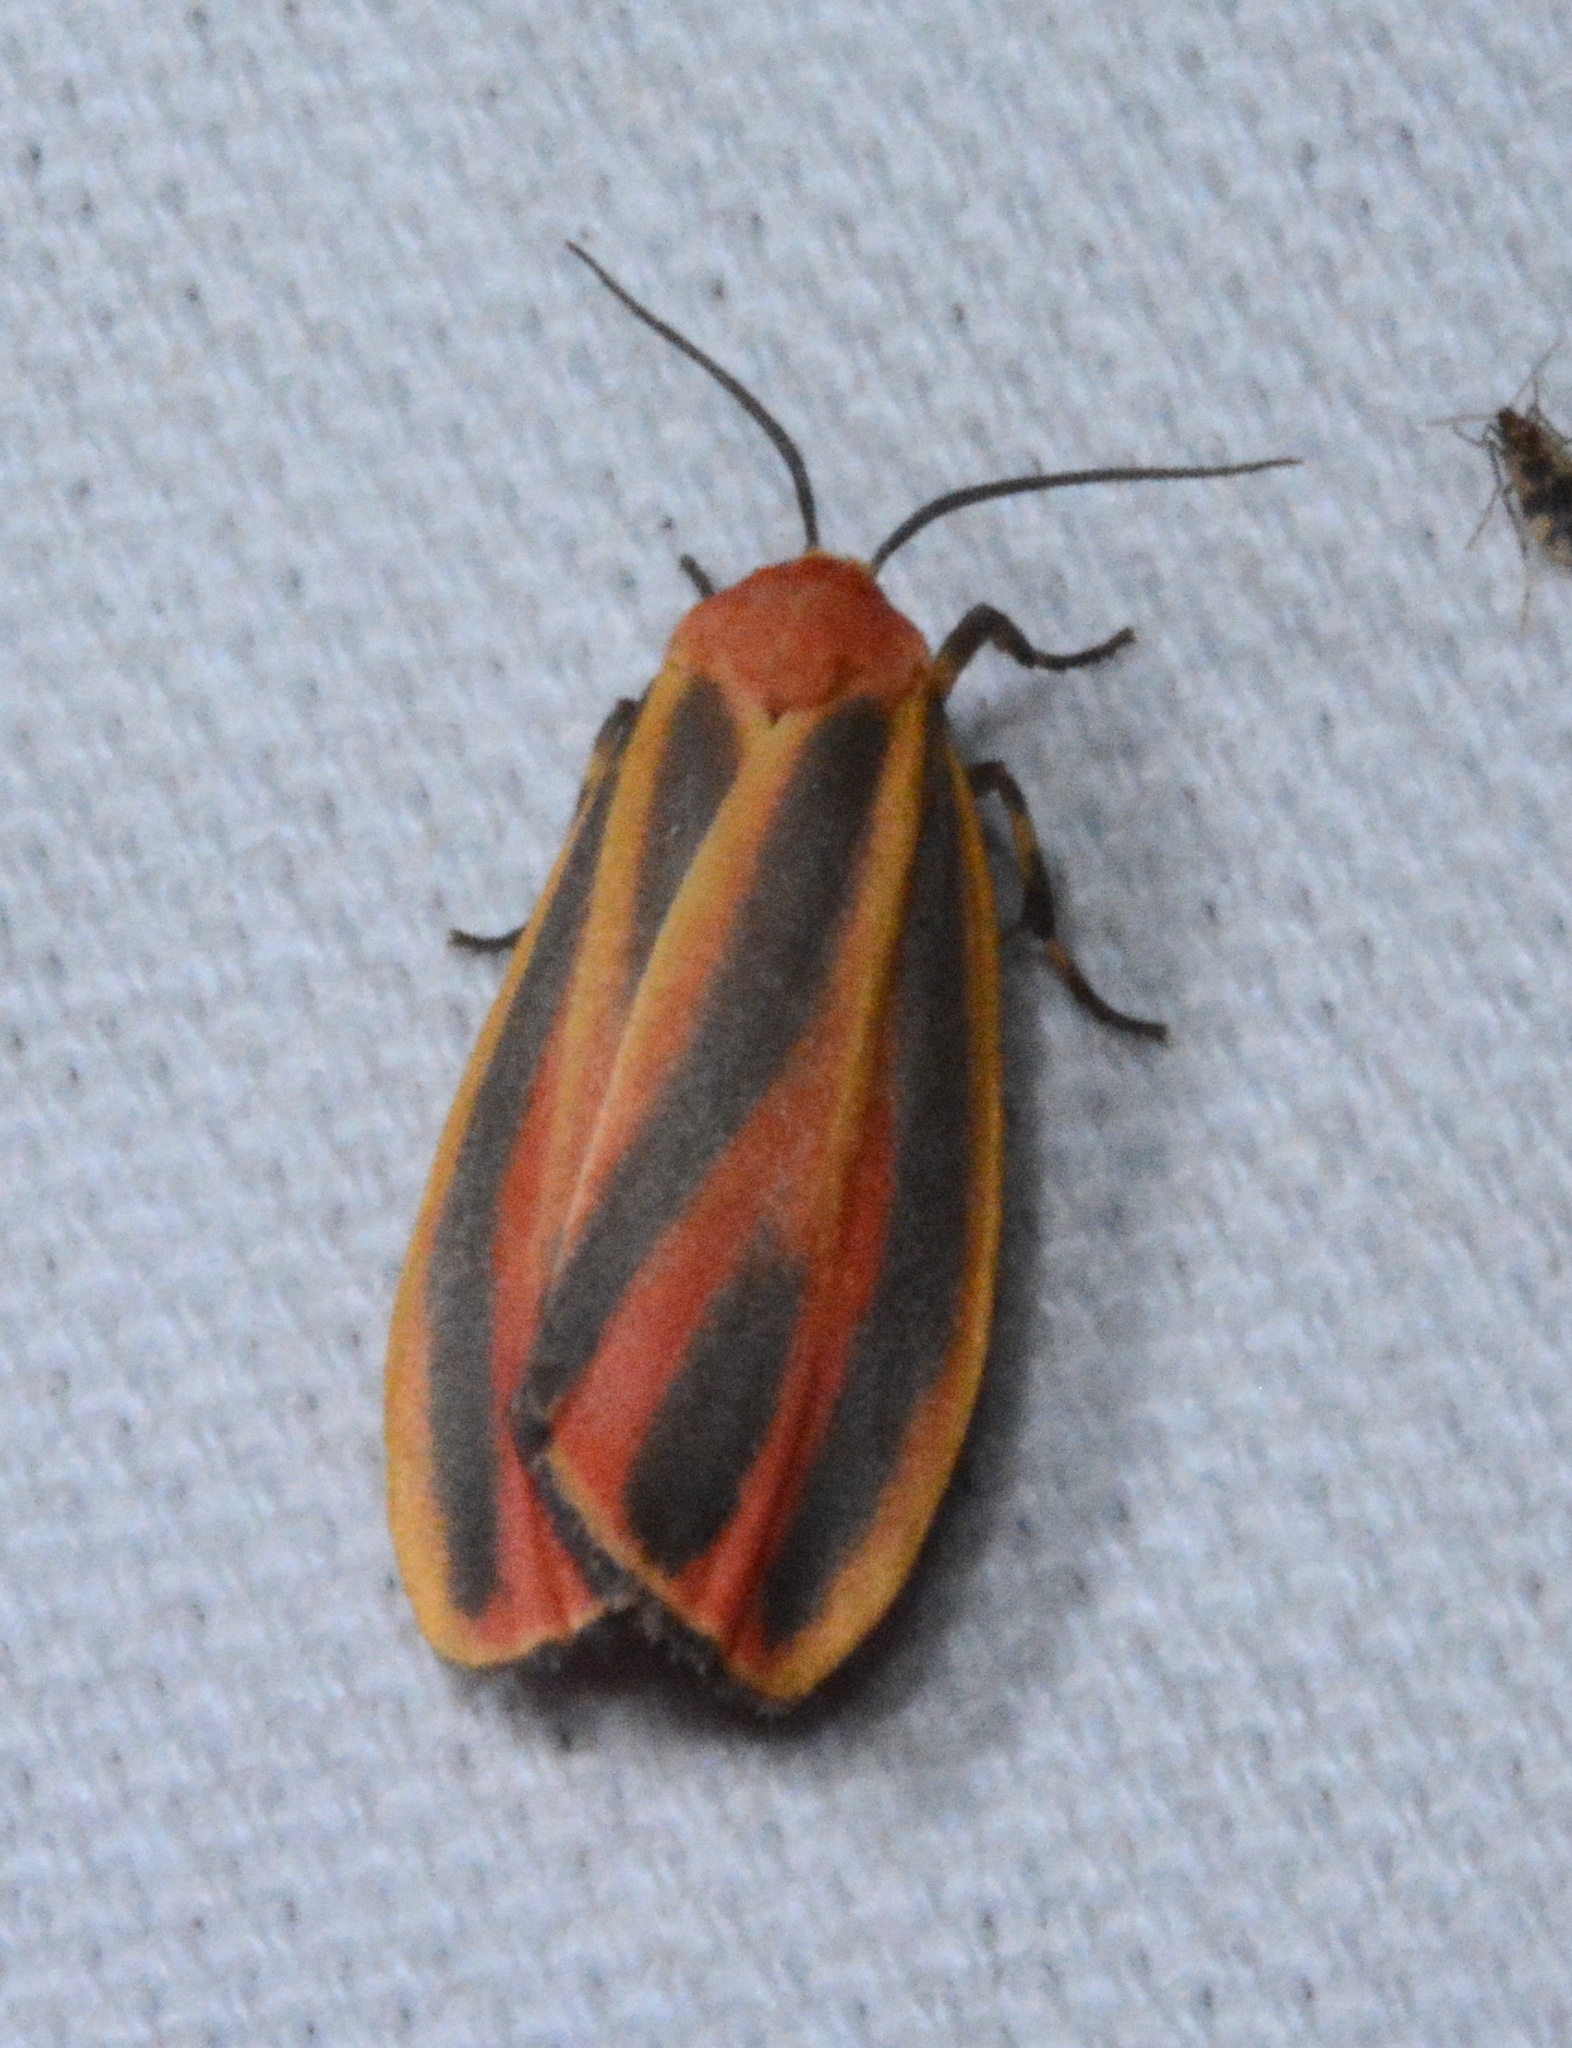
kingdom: Animalia
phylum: Arthropoda
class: Insecta
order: Lepidoptera
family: Erebidae
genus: Hypoprepia
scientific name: Hypoprepia fucosa
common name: Painted lichen moth
